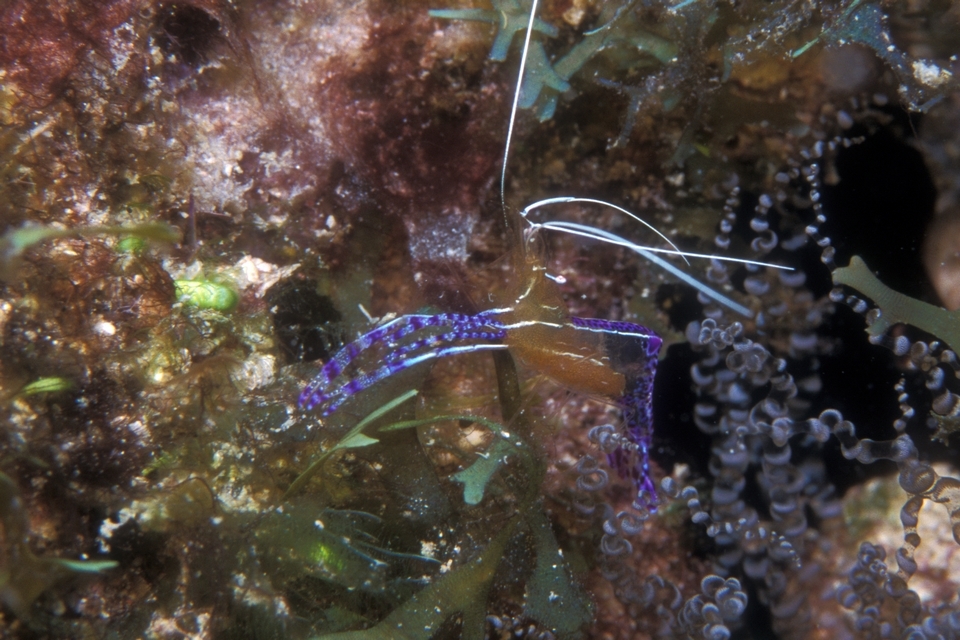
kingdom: Animalia
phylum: Arthropoda
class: Malacostraca
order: Decapoda
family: Palaemonidae
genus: Ancylomenes
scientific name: Ancylomenes pedersoni
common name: Pederson's cleaning shrimp
